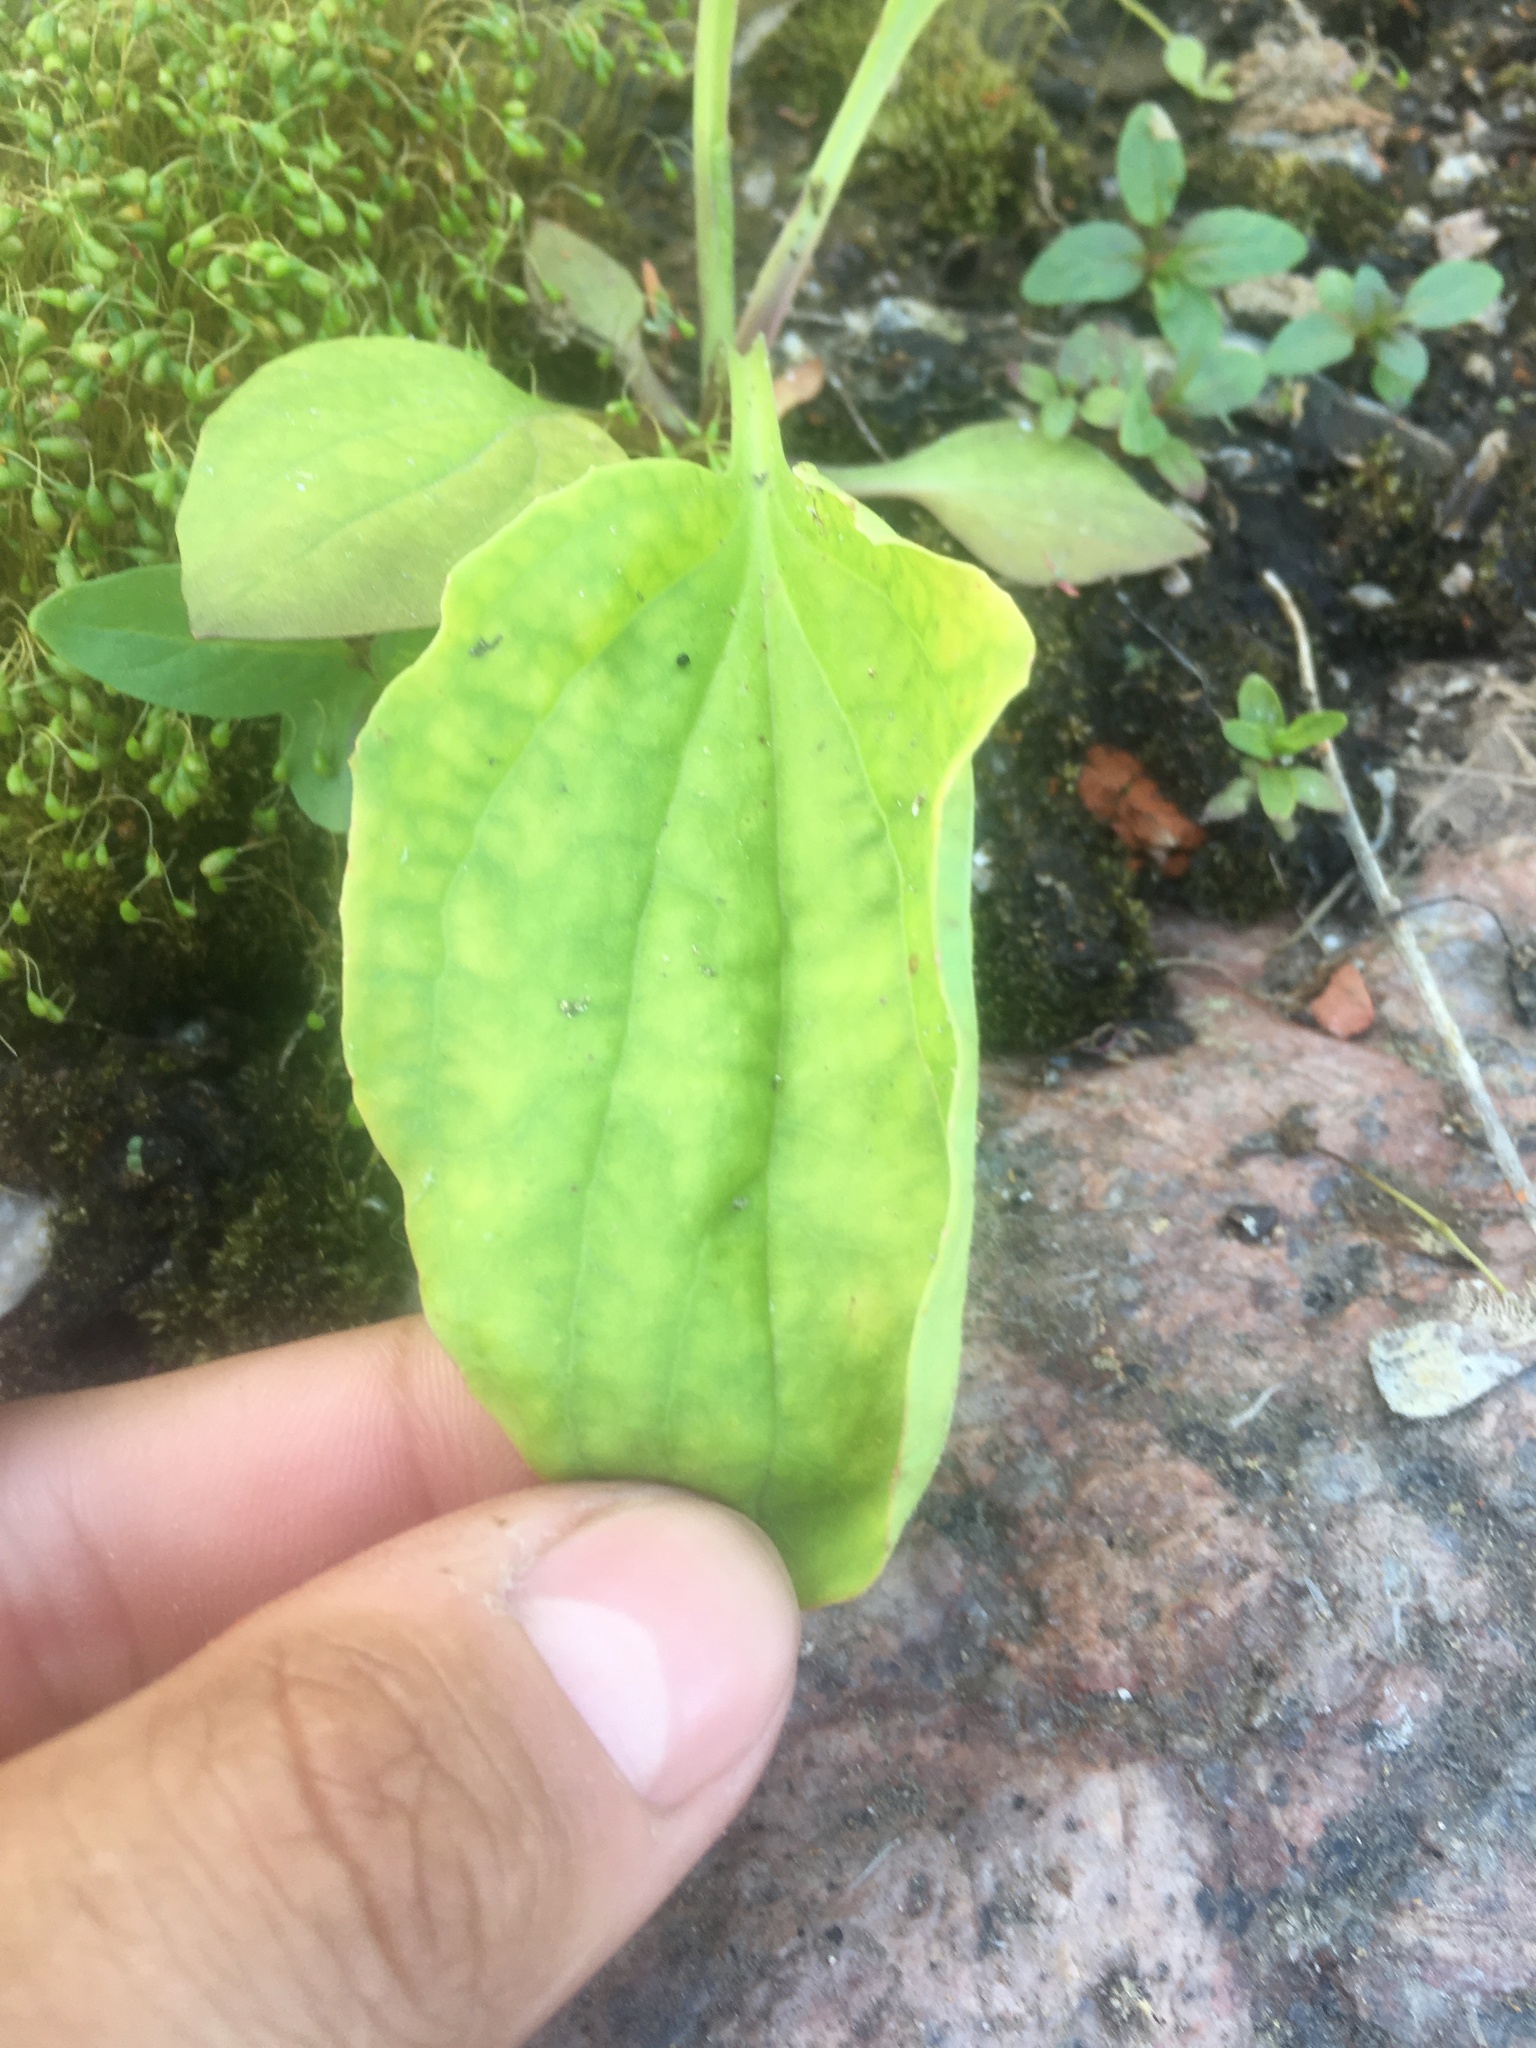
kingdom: Plantae
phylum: Tracheophyta
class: Magnoliopsida
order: Lamiales
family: Plantaginaceae
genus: Plantago
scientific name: Plantago major
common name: Common plantain
